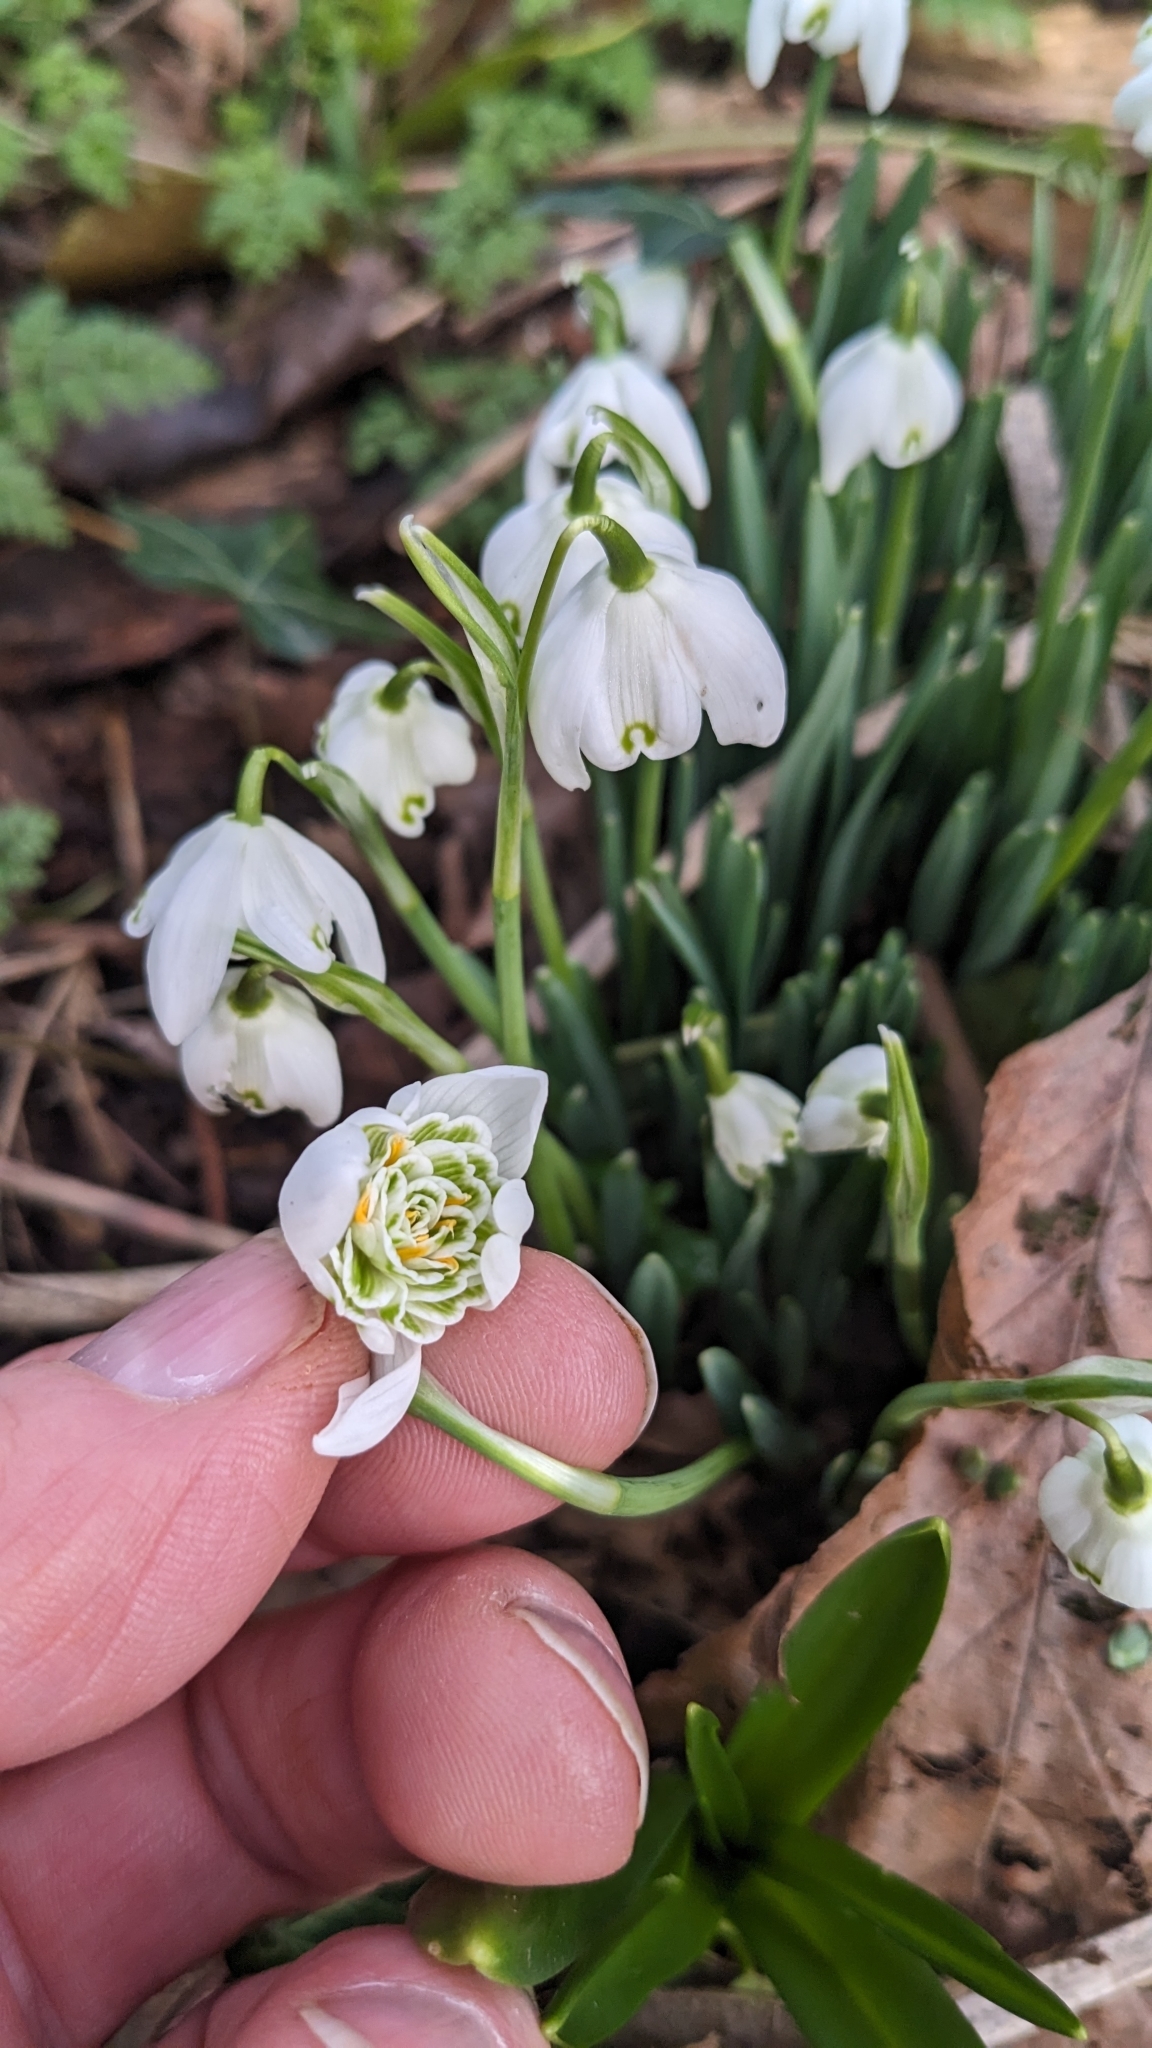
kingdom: Plantae
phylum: Tracheophyta
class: Liliopsida
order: Asparagales
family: Amaryllidaceae
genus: Galanthus
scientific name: Galanthus nivalis
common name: Snowdrop
